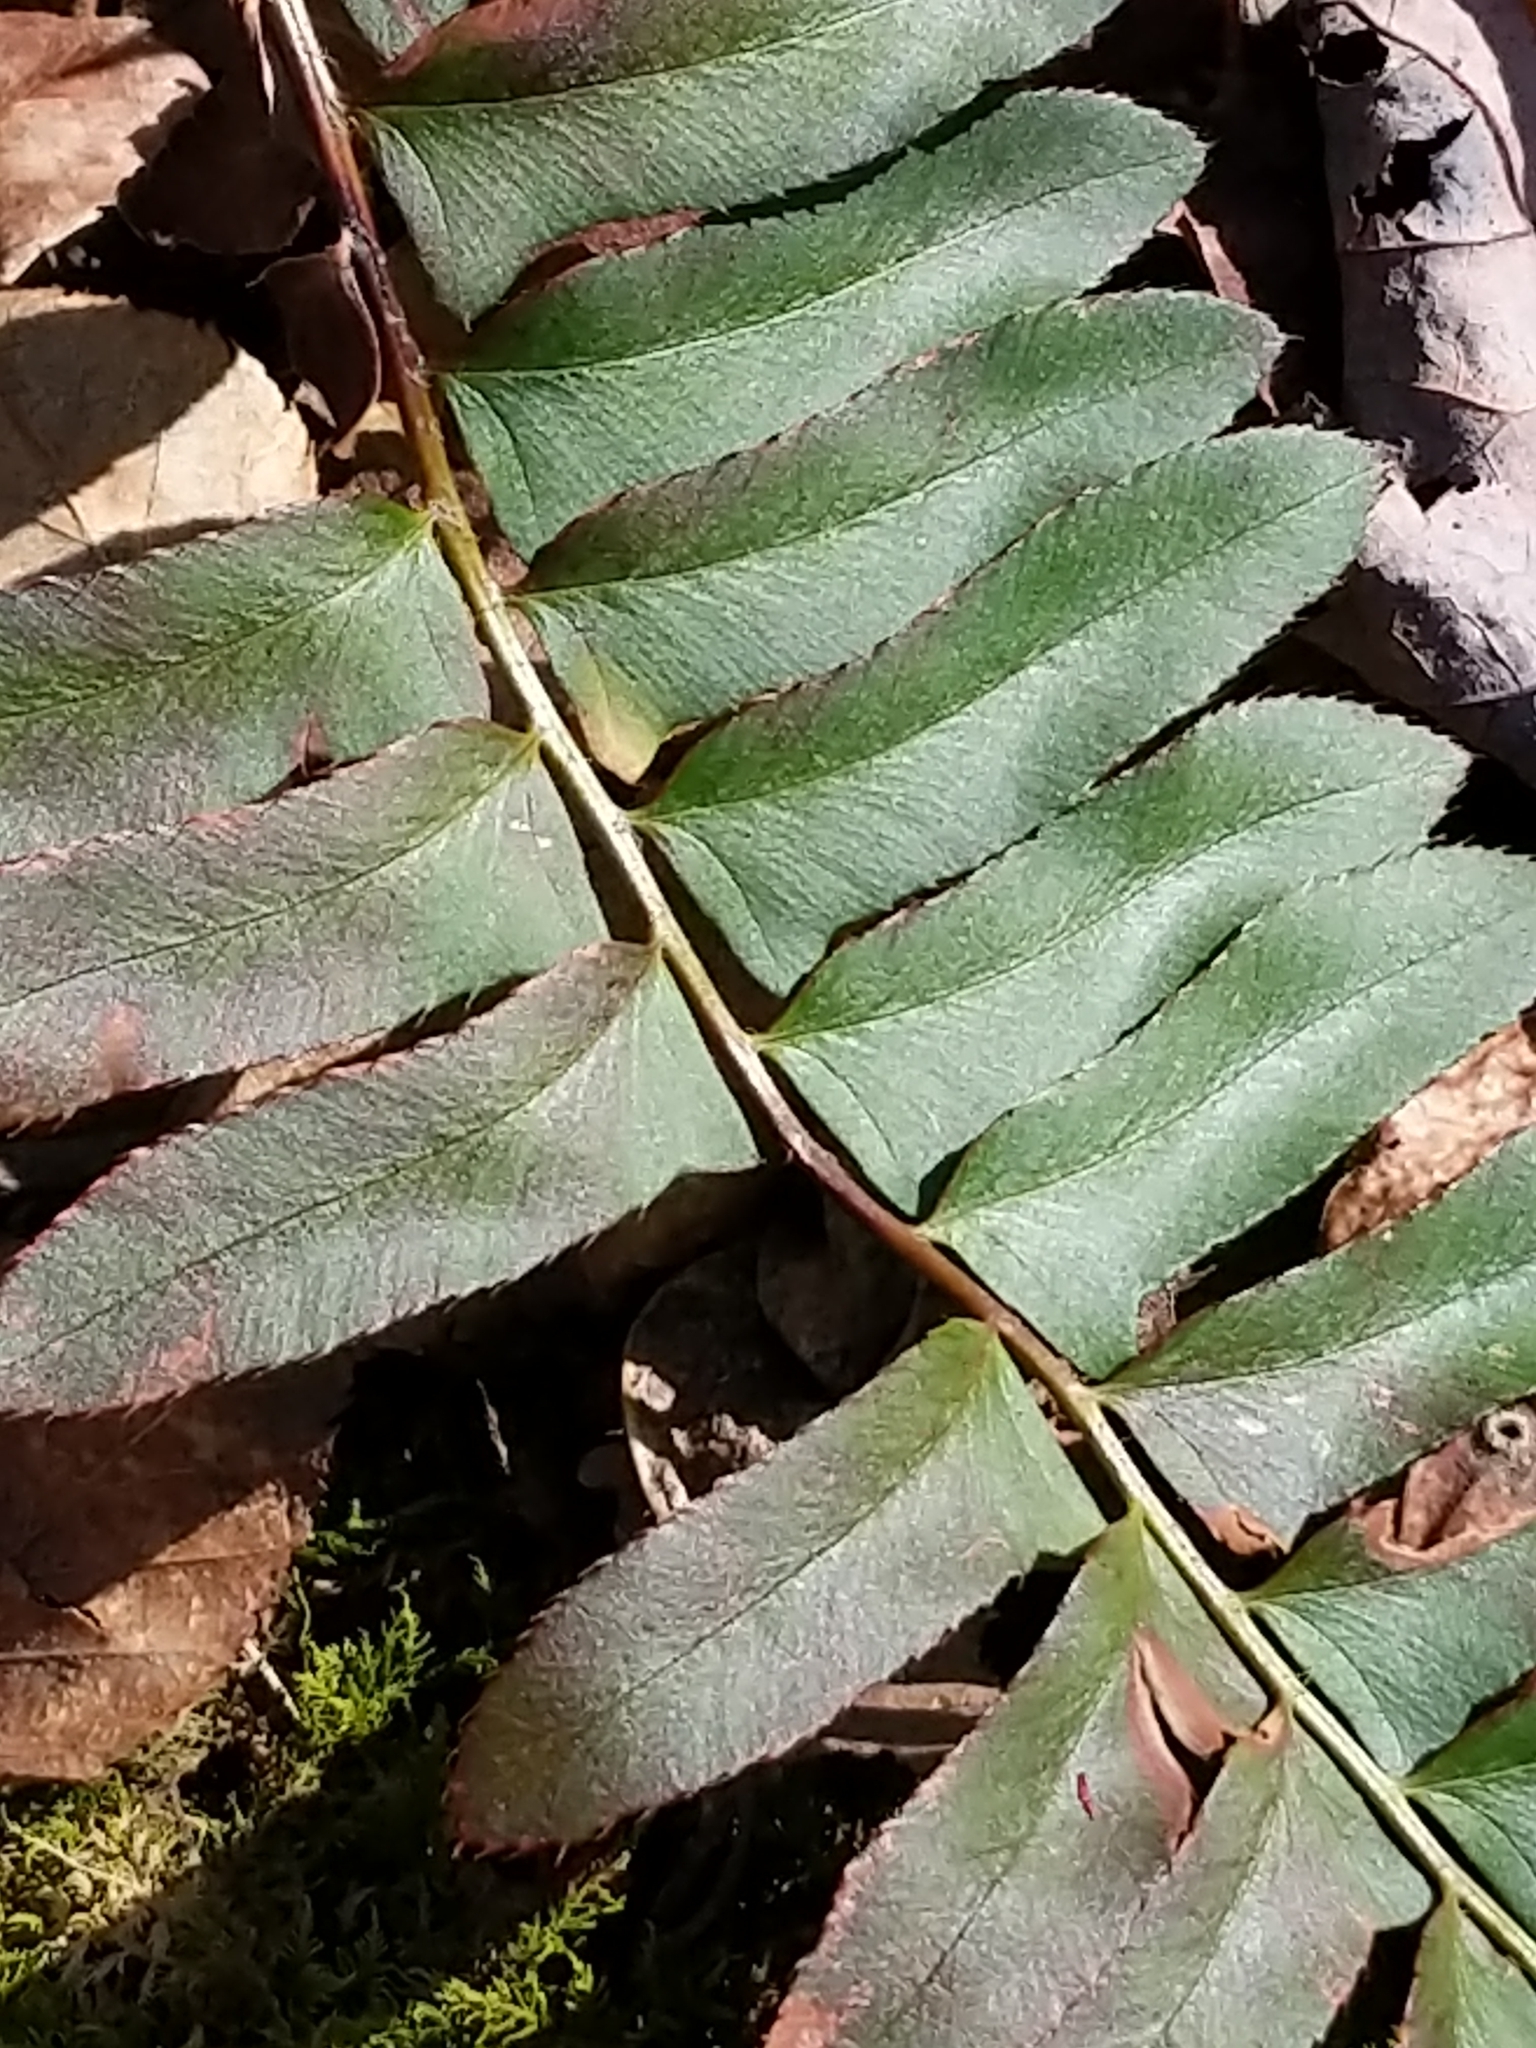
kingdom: Plantae
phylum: Tracheophyta
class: Polypodiopsida
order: Polypodiales
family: Dryopteridaceae
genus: Polystichum
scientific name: Polystichum acrostichoides
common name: Christmas fern
